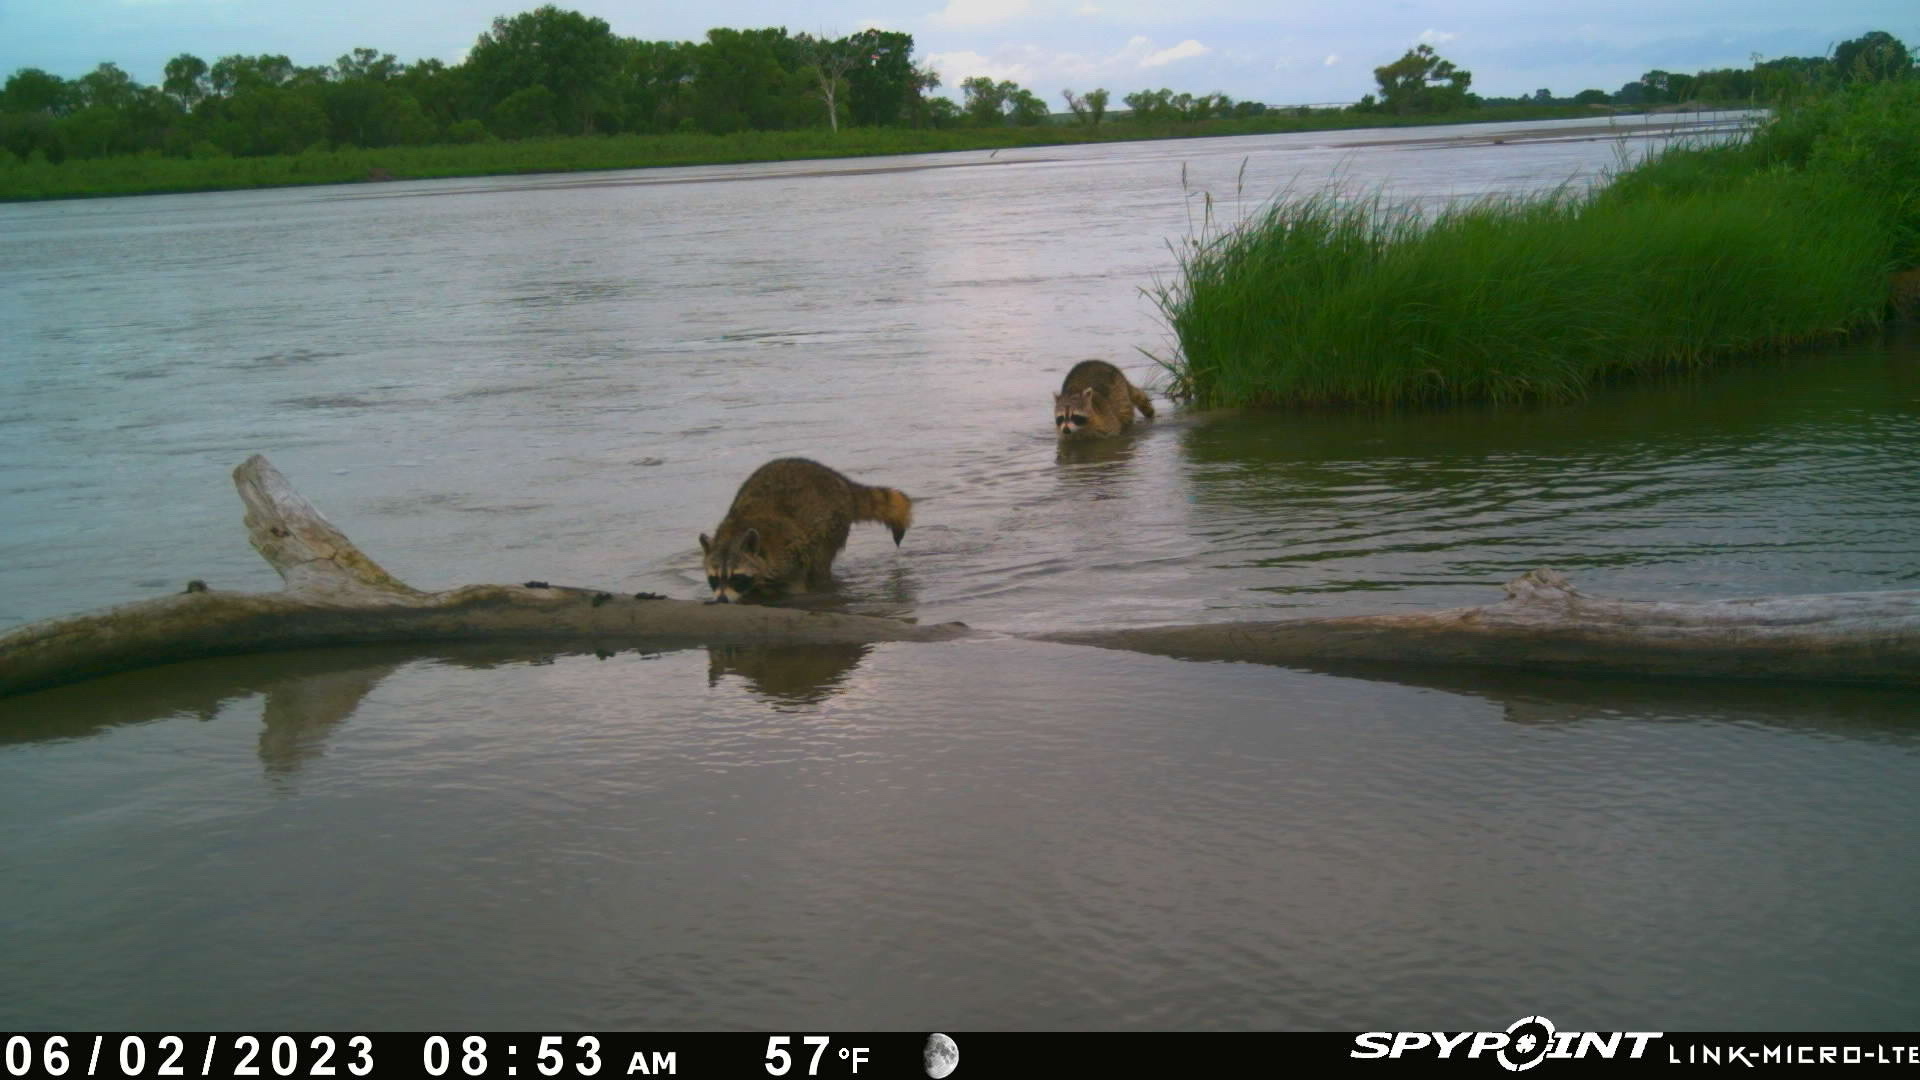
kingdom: Animalia
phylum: Chordata
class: Mammalia
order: Carnivora
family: Procyonidae
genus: Procyon
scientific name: Procyon lotor
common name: Raccoon
